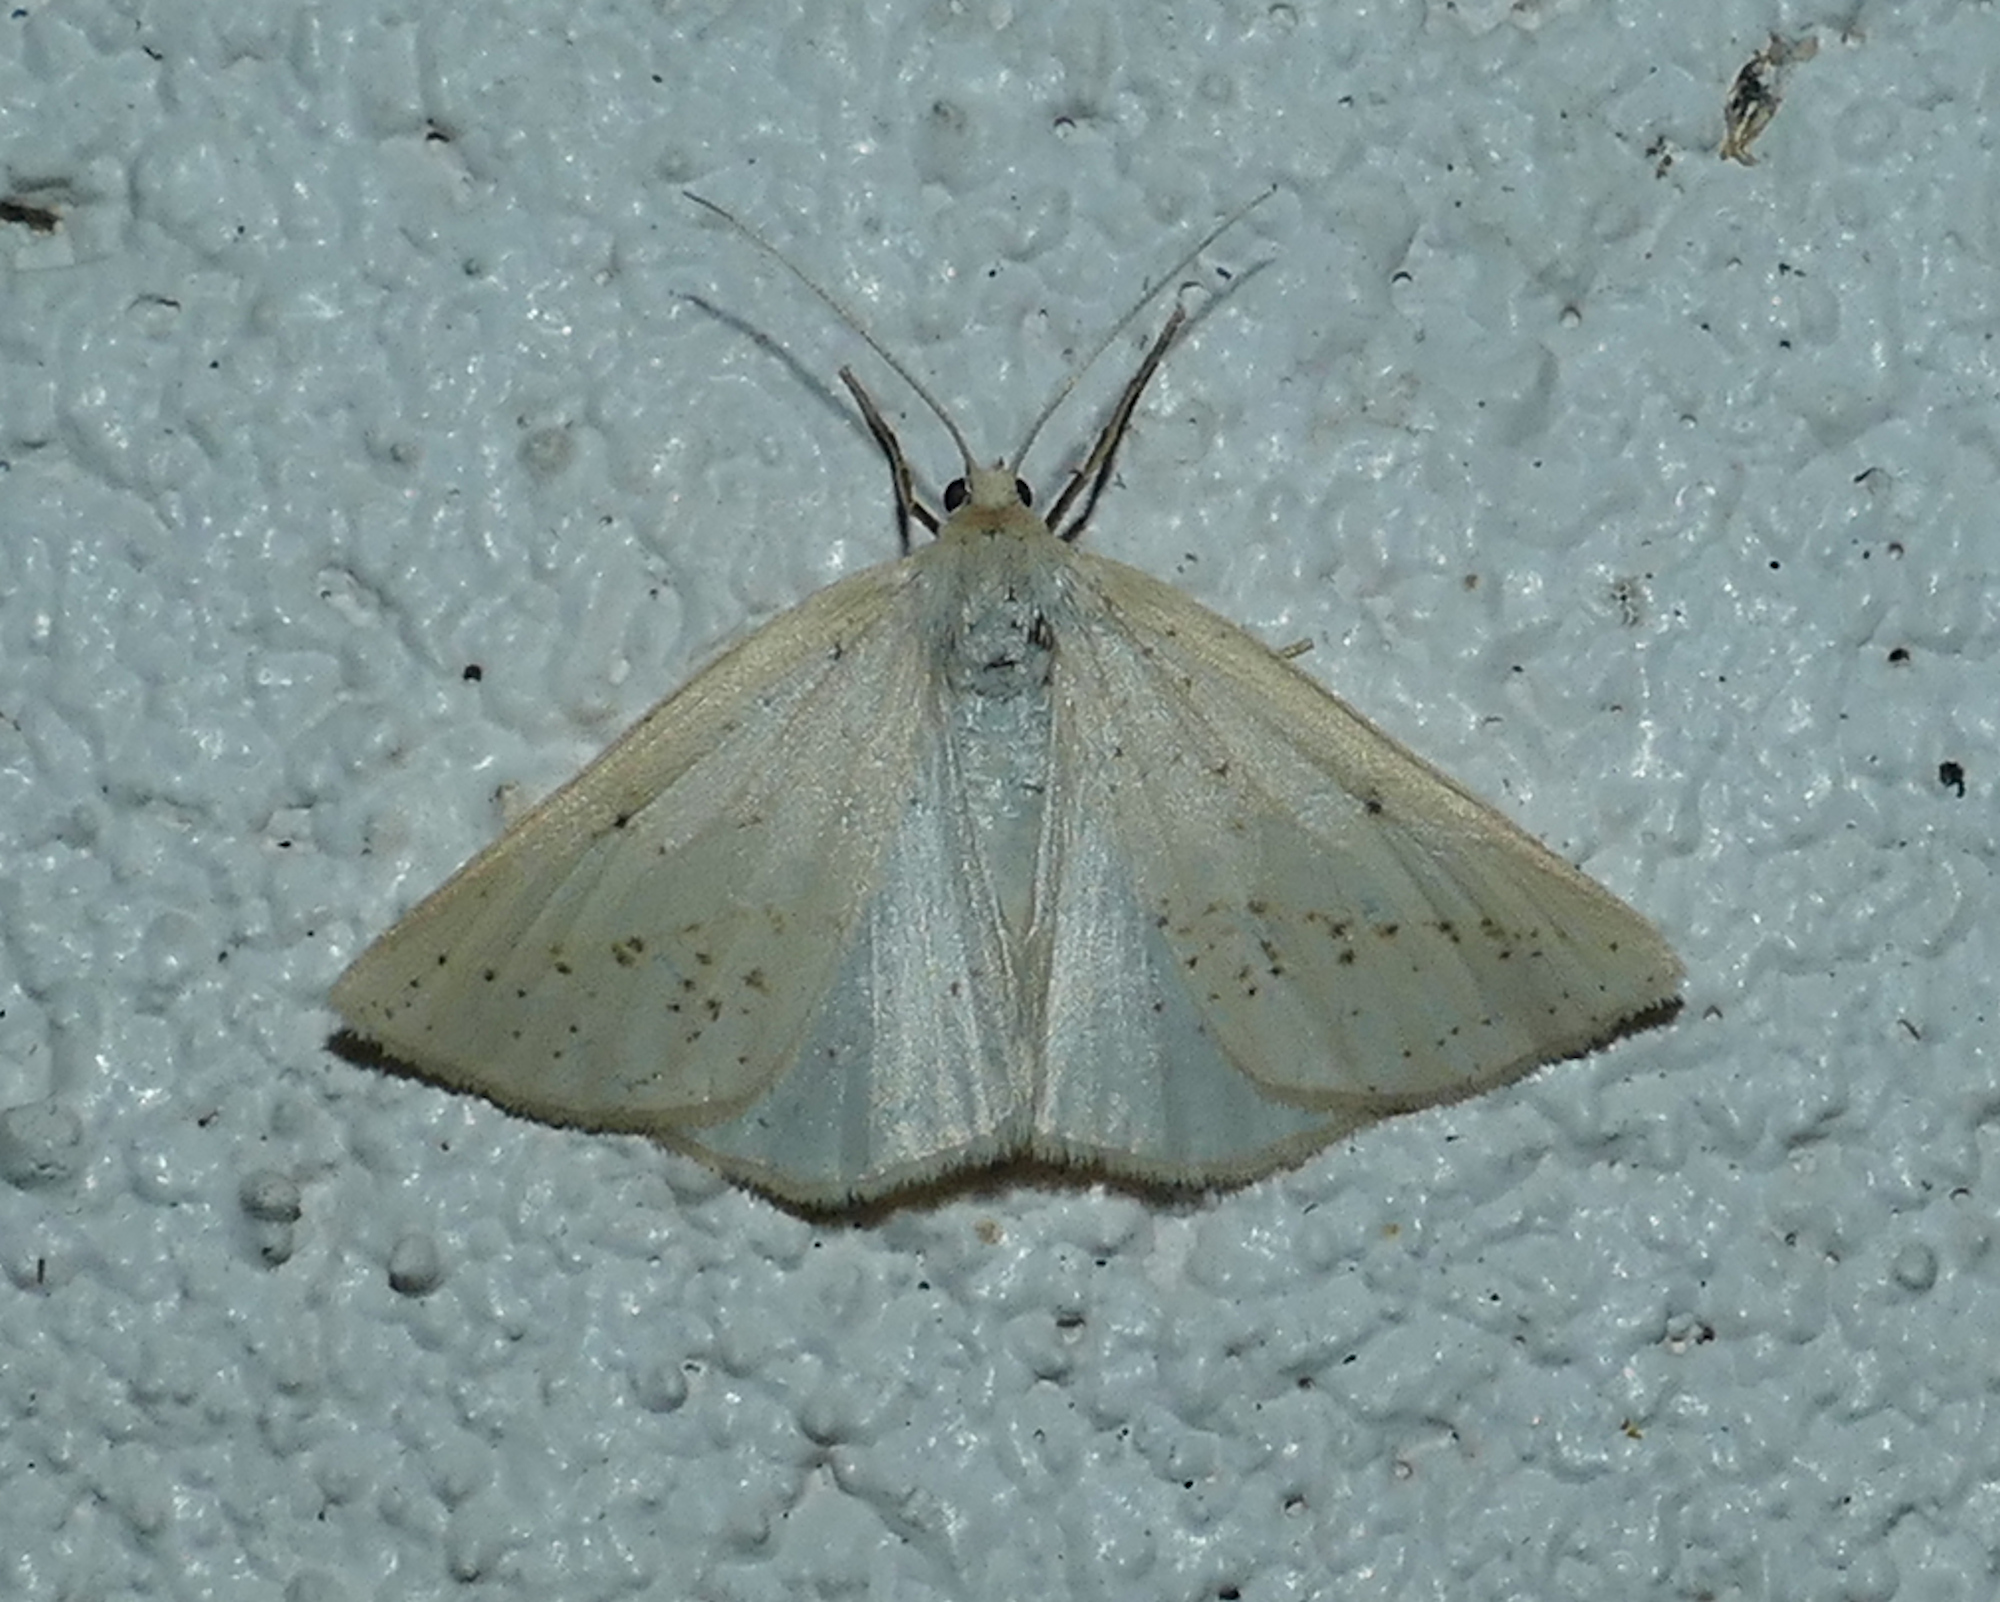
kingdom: Animalia
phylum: Arthropoda
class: Insecta
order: Lepidoptera
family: Geometridae
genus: Lychnosea
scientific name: Lychnosea intermicata
